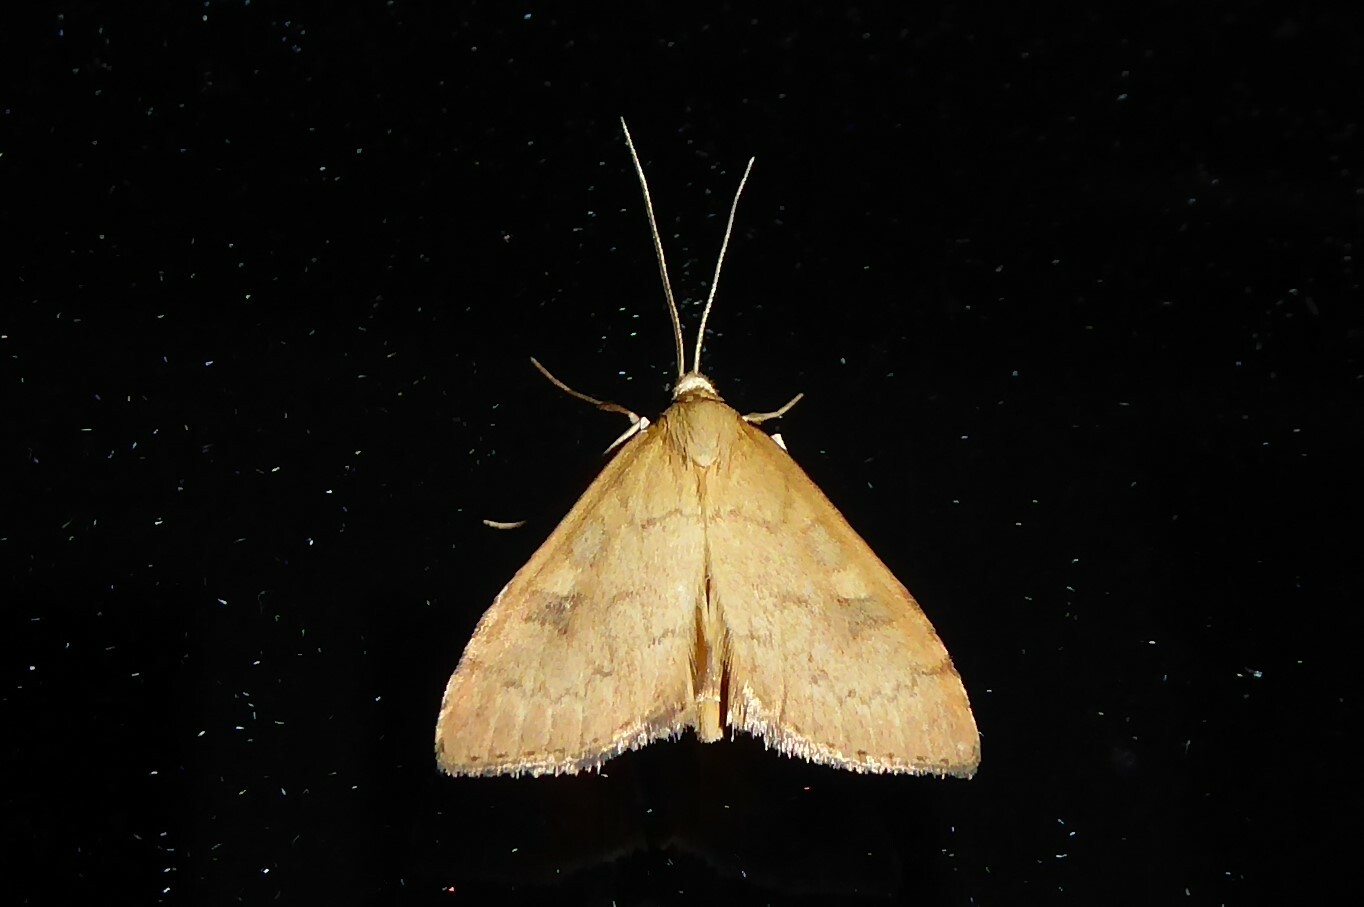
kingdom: Animalia
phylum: Arthropoda
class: Insecta
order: Lepidoptera
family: Crambidae
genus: Udea
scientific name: Udea Mnesictena flavidalis
